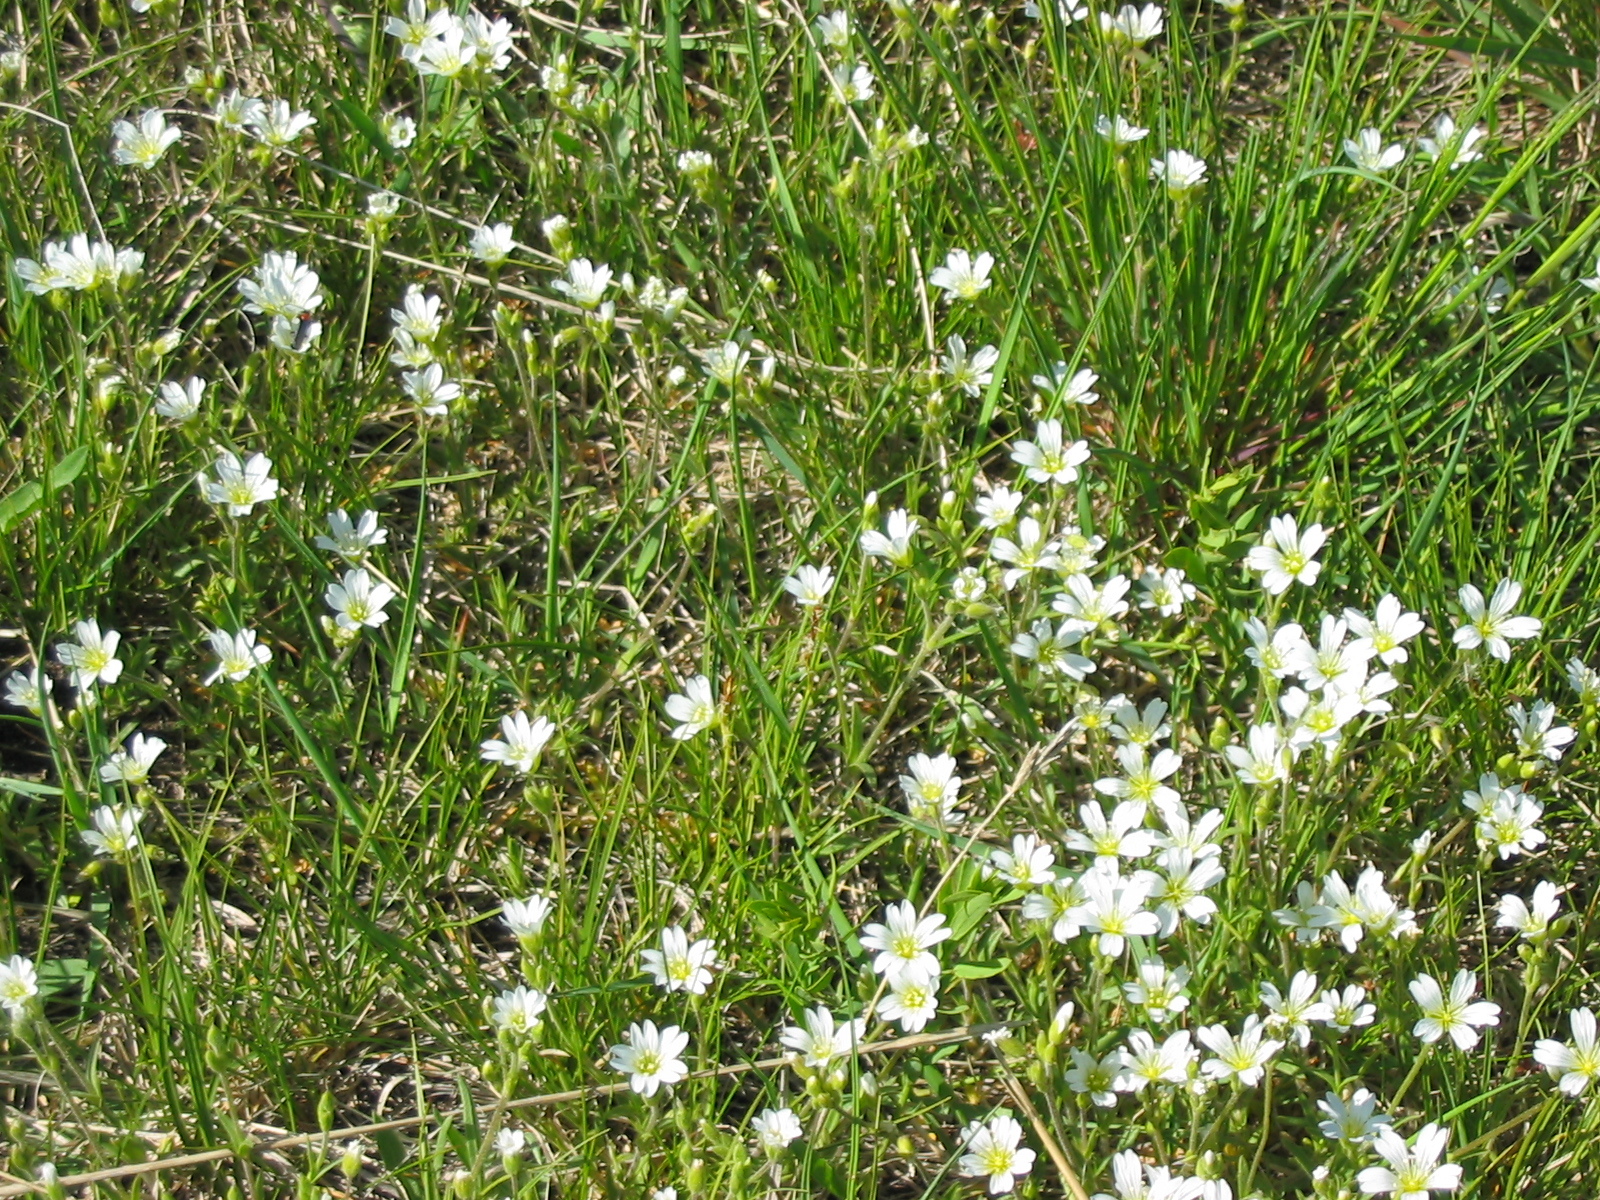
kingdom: Plantae
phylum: Tracheophyta
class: Magnoliopsida
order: Caryophyllales
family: Caryophyllaceae
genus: Cerastium
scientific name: Cerastium arvense
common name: Field mouse-ear
